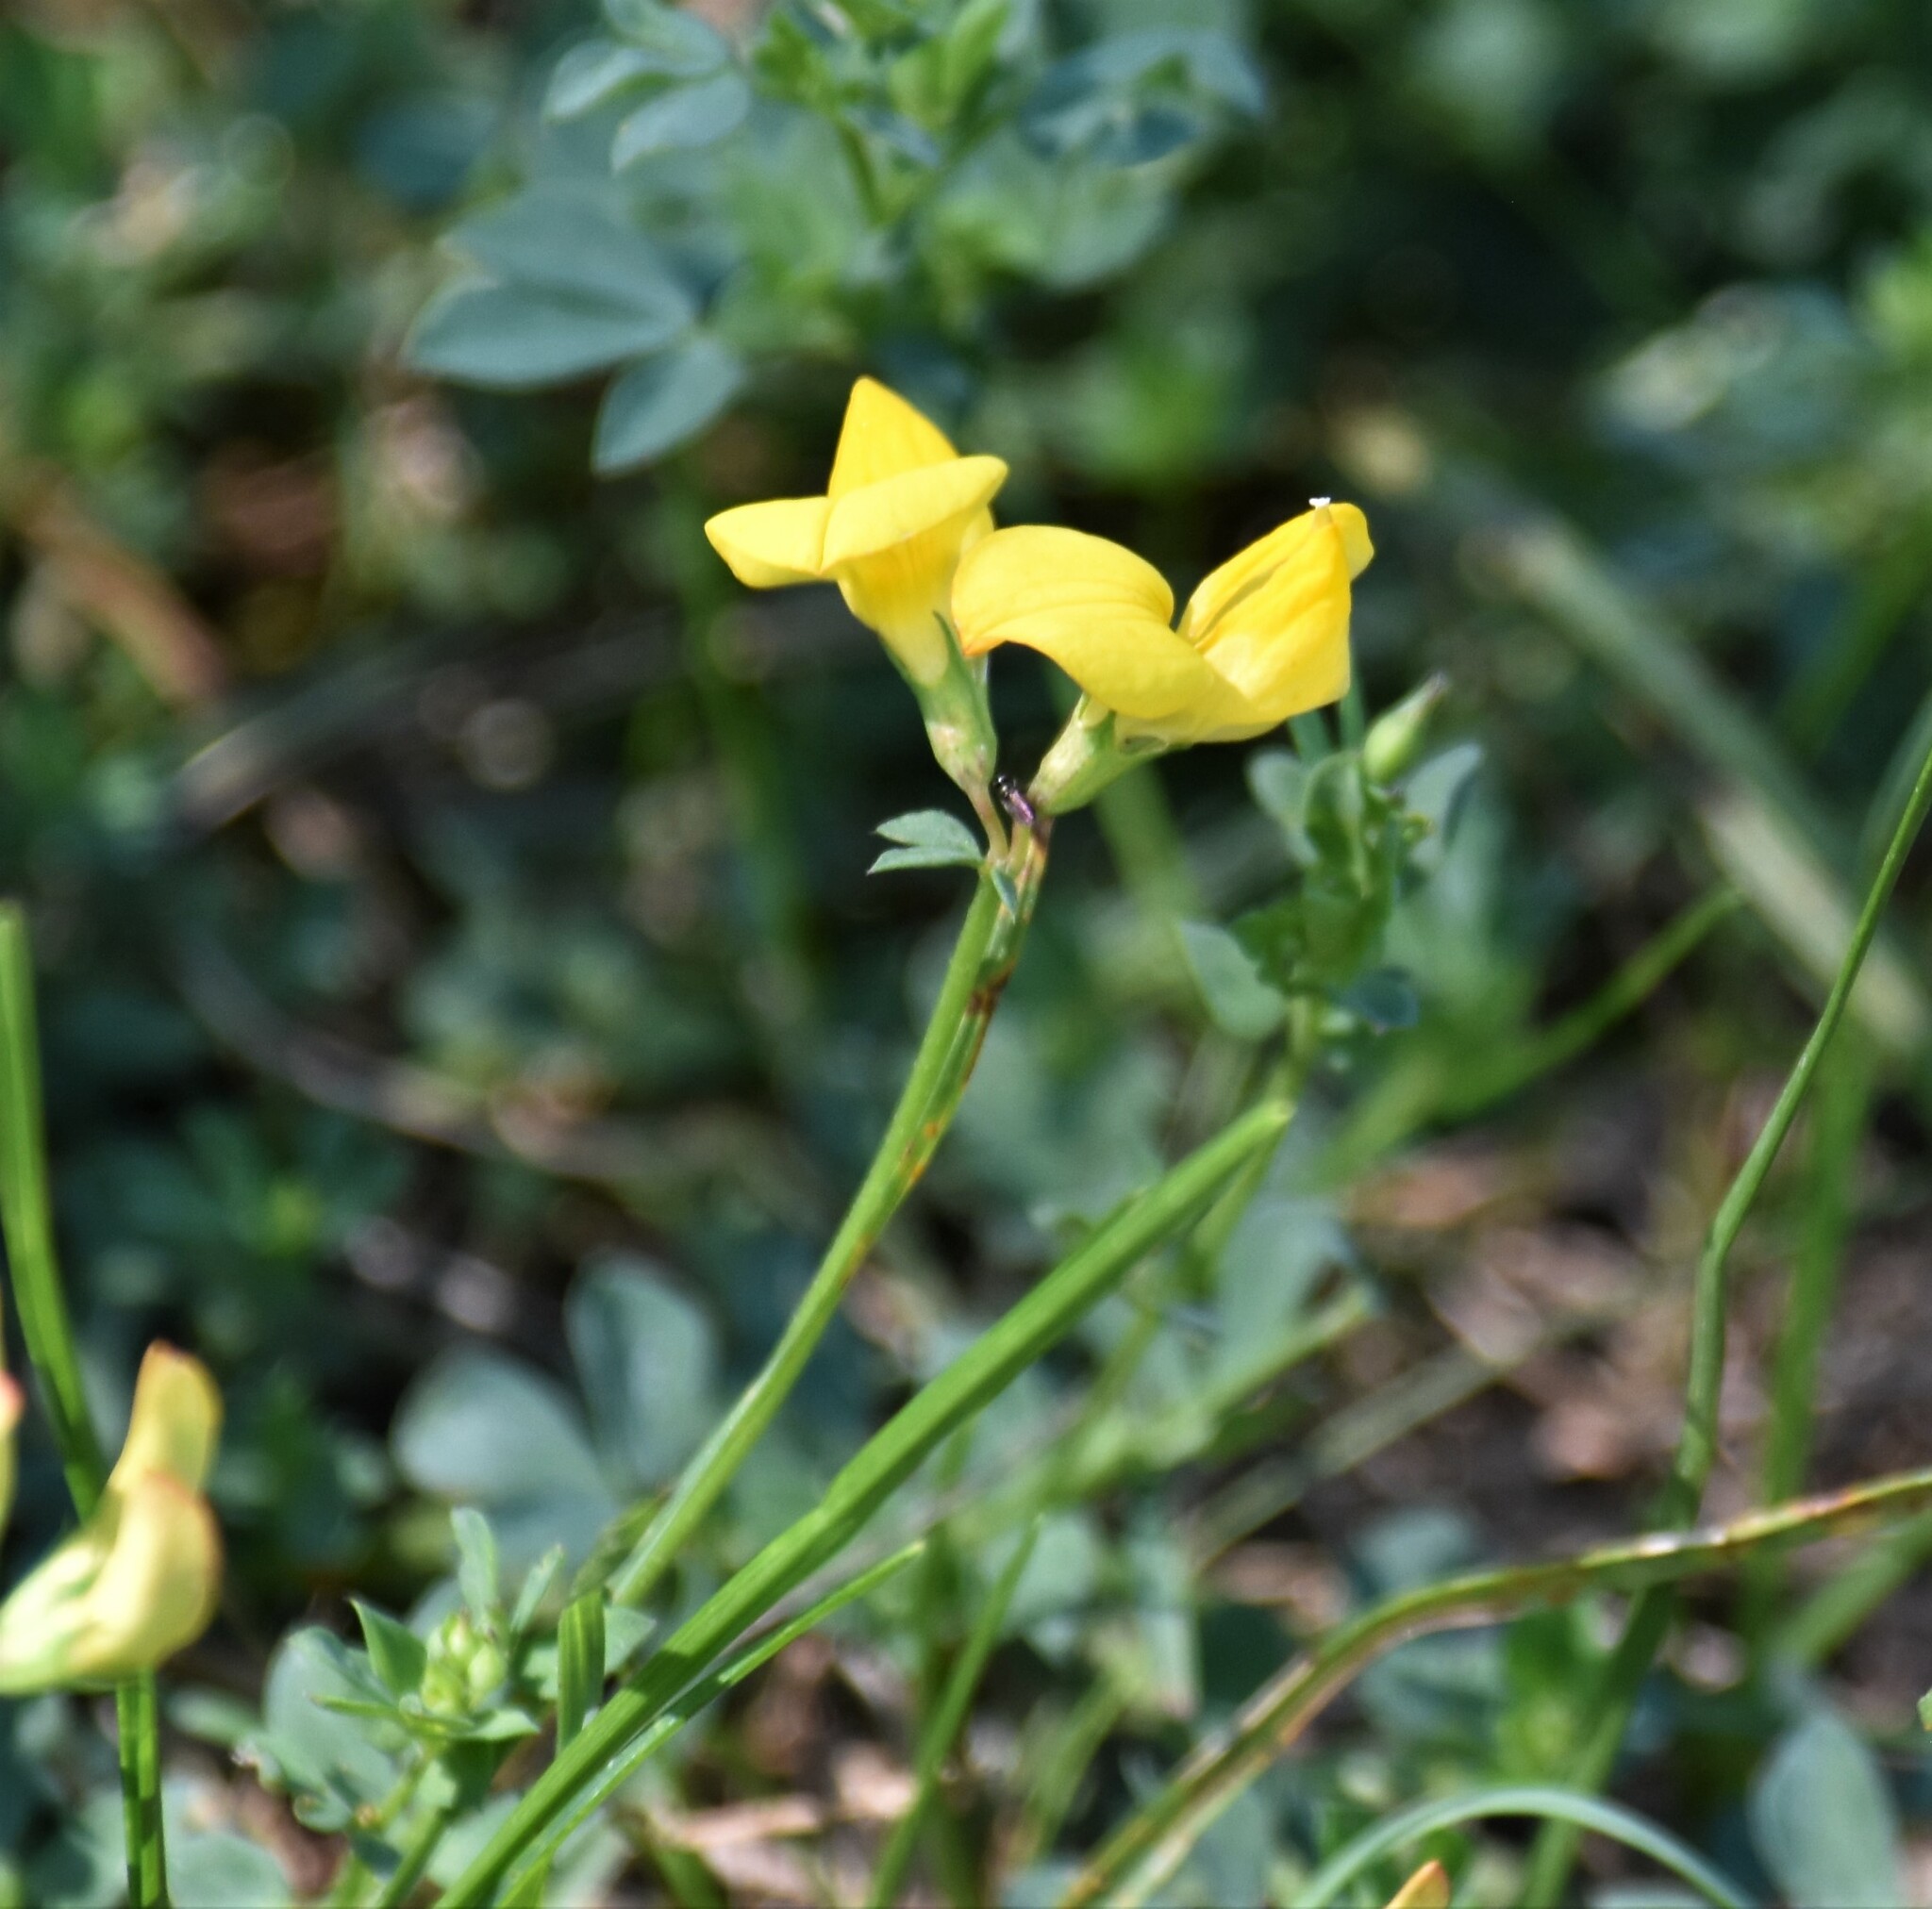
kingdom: Plantae
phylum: Tracheophyta
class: Magnoliopsida
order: Fabales
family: Fabaceae
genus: Lotus
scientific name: Lotus corniculatus
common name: Common bird's-foot-trefoil
